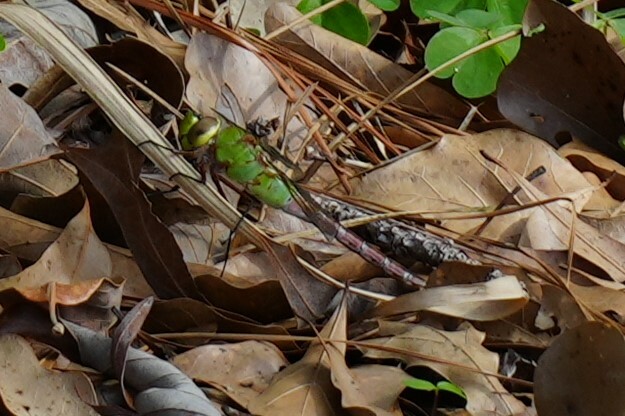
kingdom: Animalia
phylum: Arthropoda
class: Insecta
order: Odonata
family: Aeshnidae
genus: Anax
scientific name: Anax junius
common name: Common green darner
